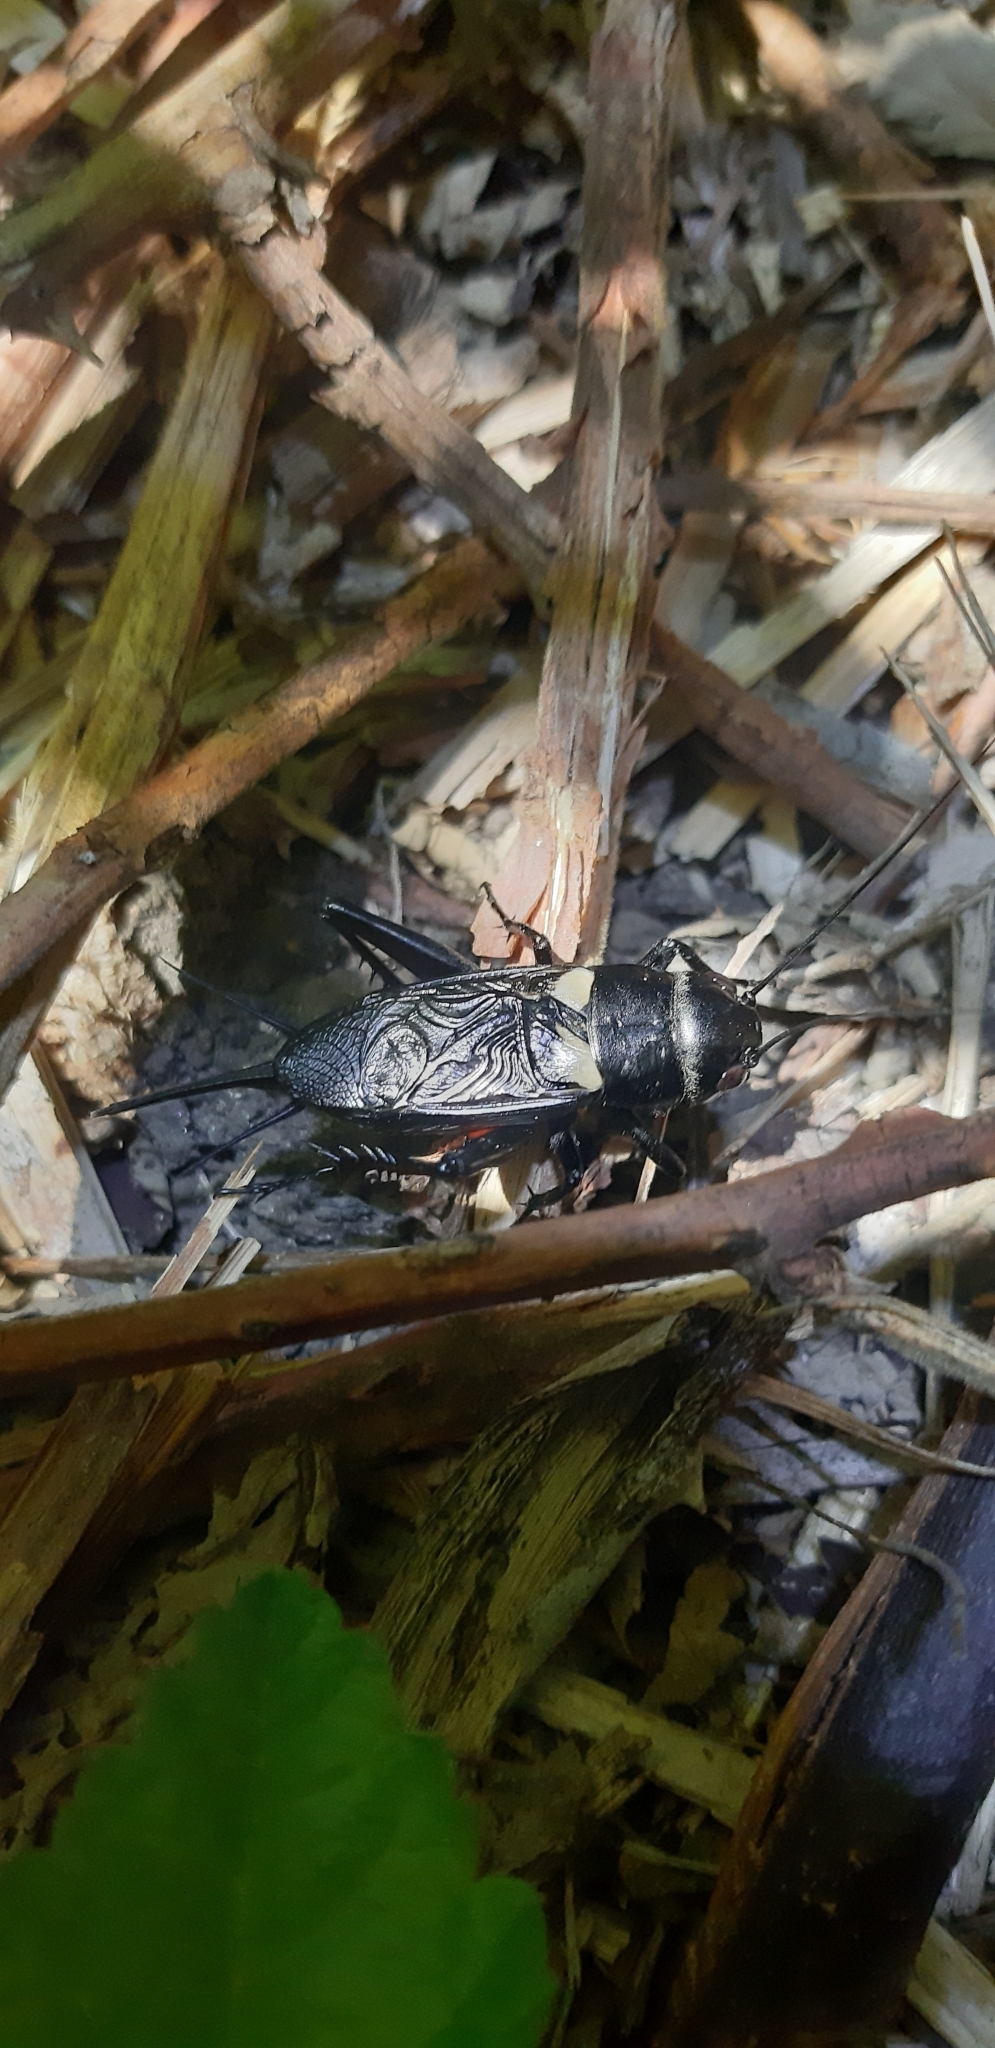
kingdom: Animalia
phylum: Arthropoda
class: Insecta
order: Orthoptera
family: Gryllidae
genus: Gryllus
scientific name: Gryllus campestris
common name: Field cricket
